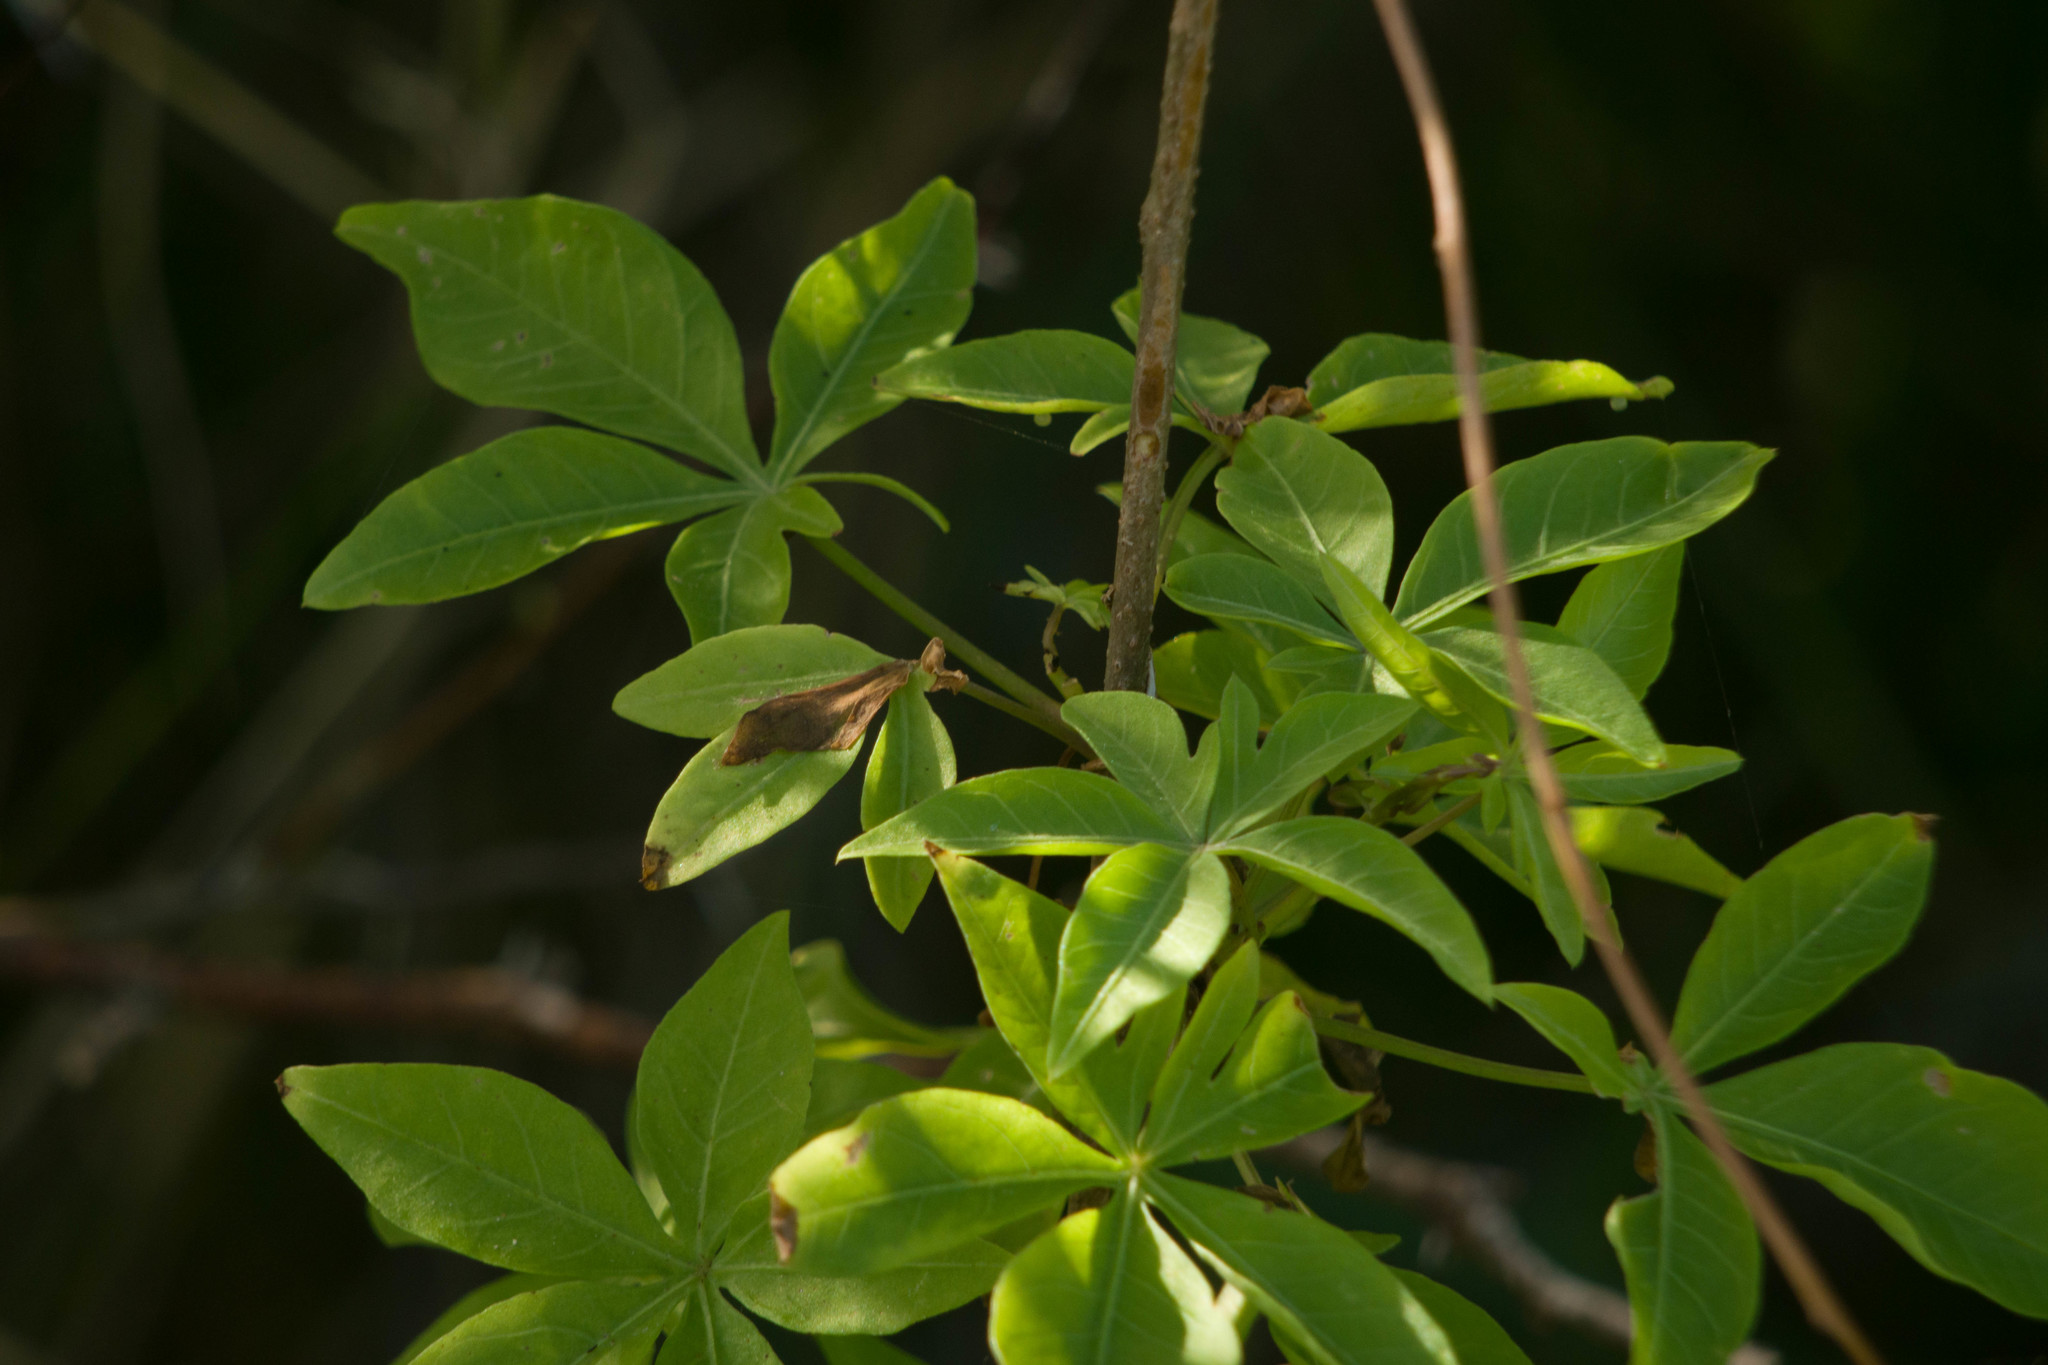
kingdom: Plantae
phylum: Tracheophyta
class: Magnoliopsida
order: Solanales
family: Convolvulaceae
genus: Ipomoea
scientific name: Ipomoea cairica
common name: Mile a minute vine
